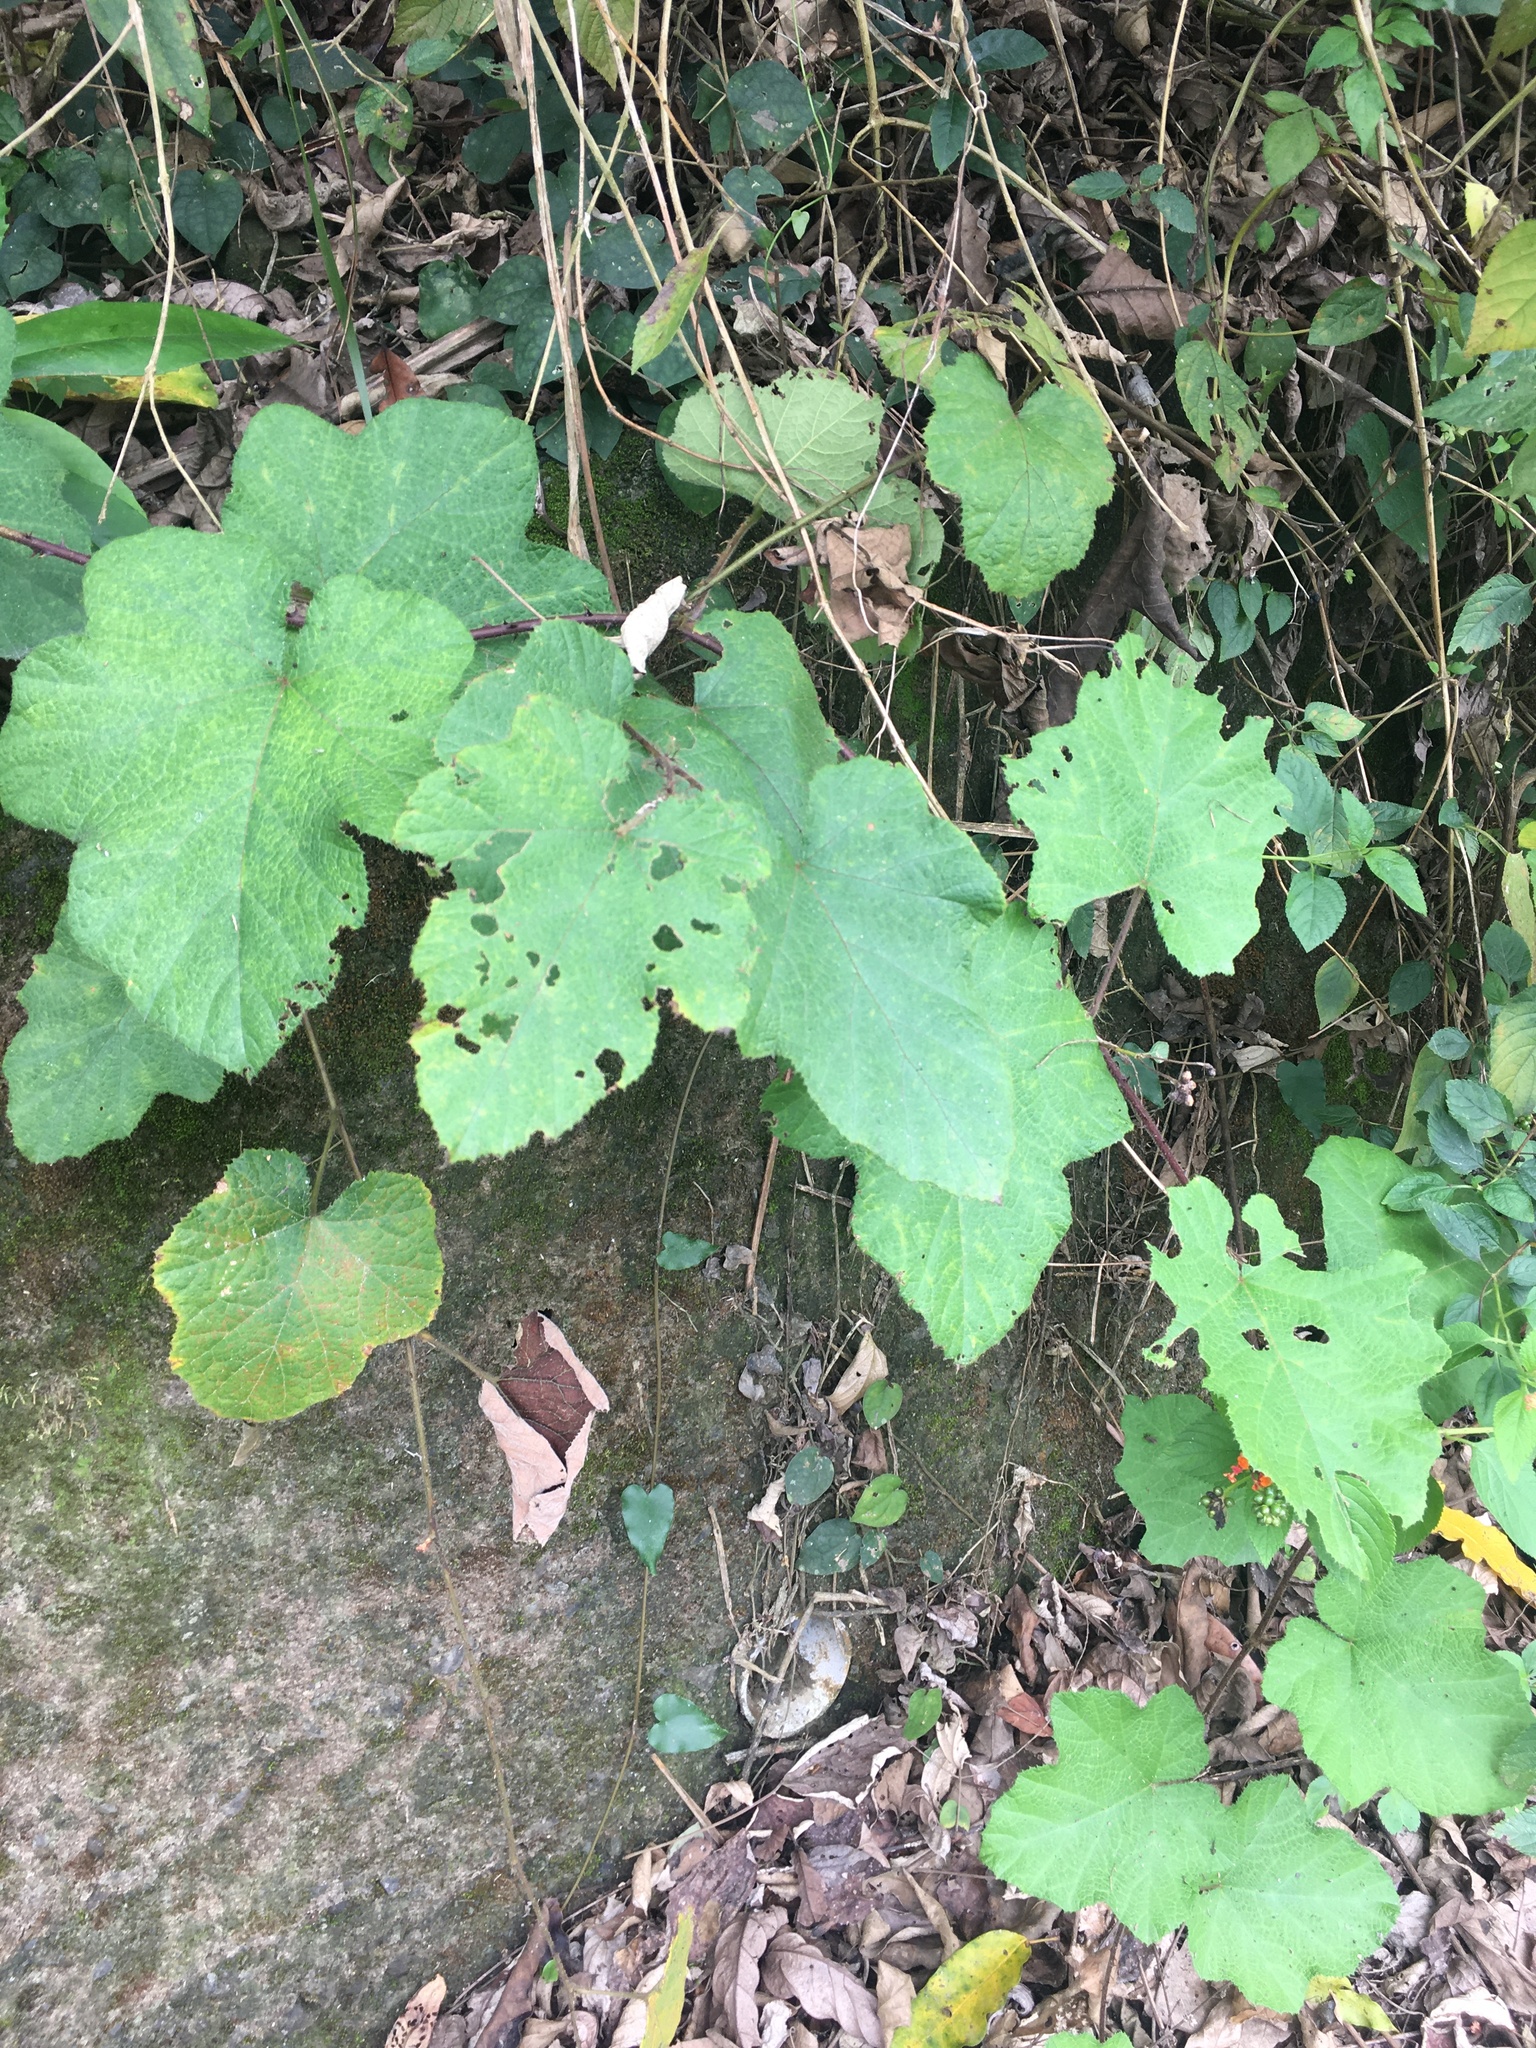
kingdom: Plantae
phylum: Tracheophyta
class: Magnoliopsida
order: Rosales
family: Rosaceae
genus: Rubus
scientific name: Rubus alceifolius
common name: Giant bramble
